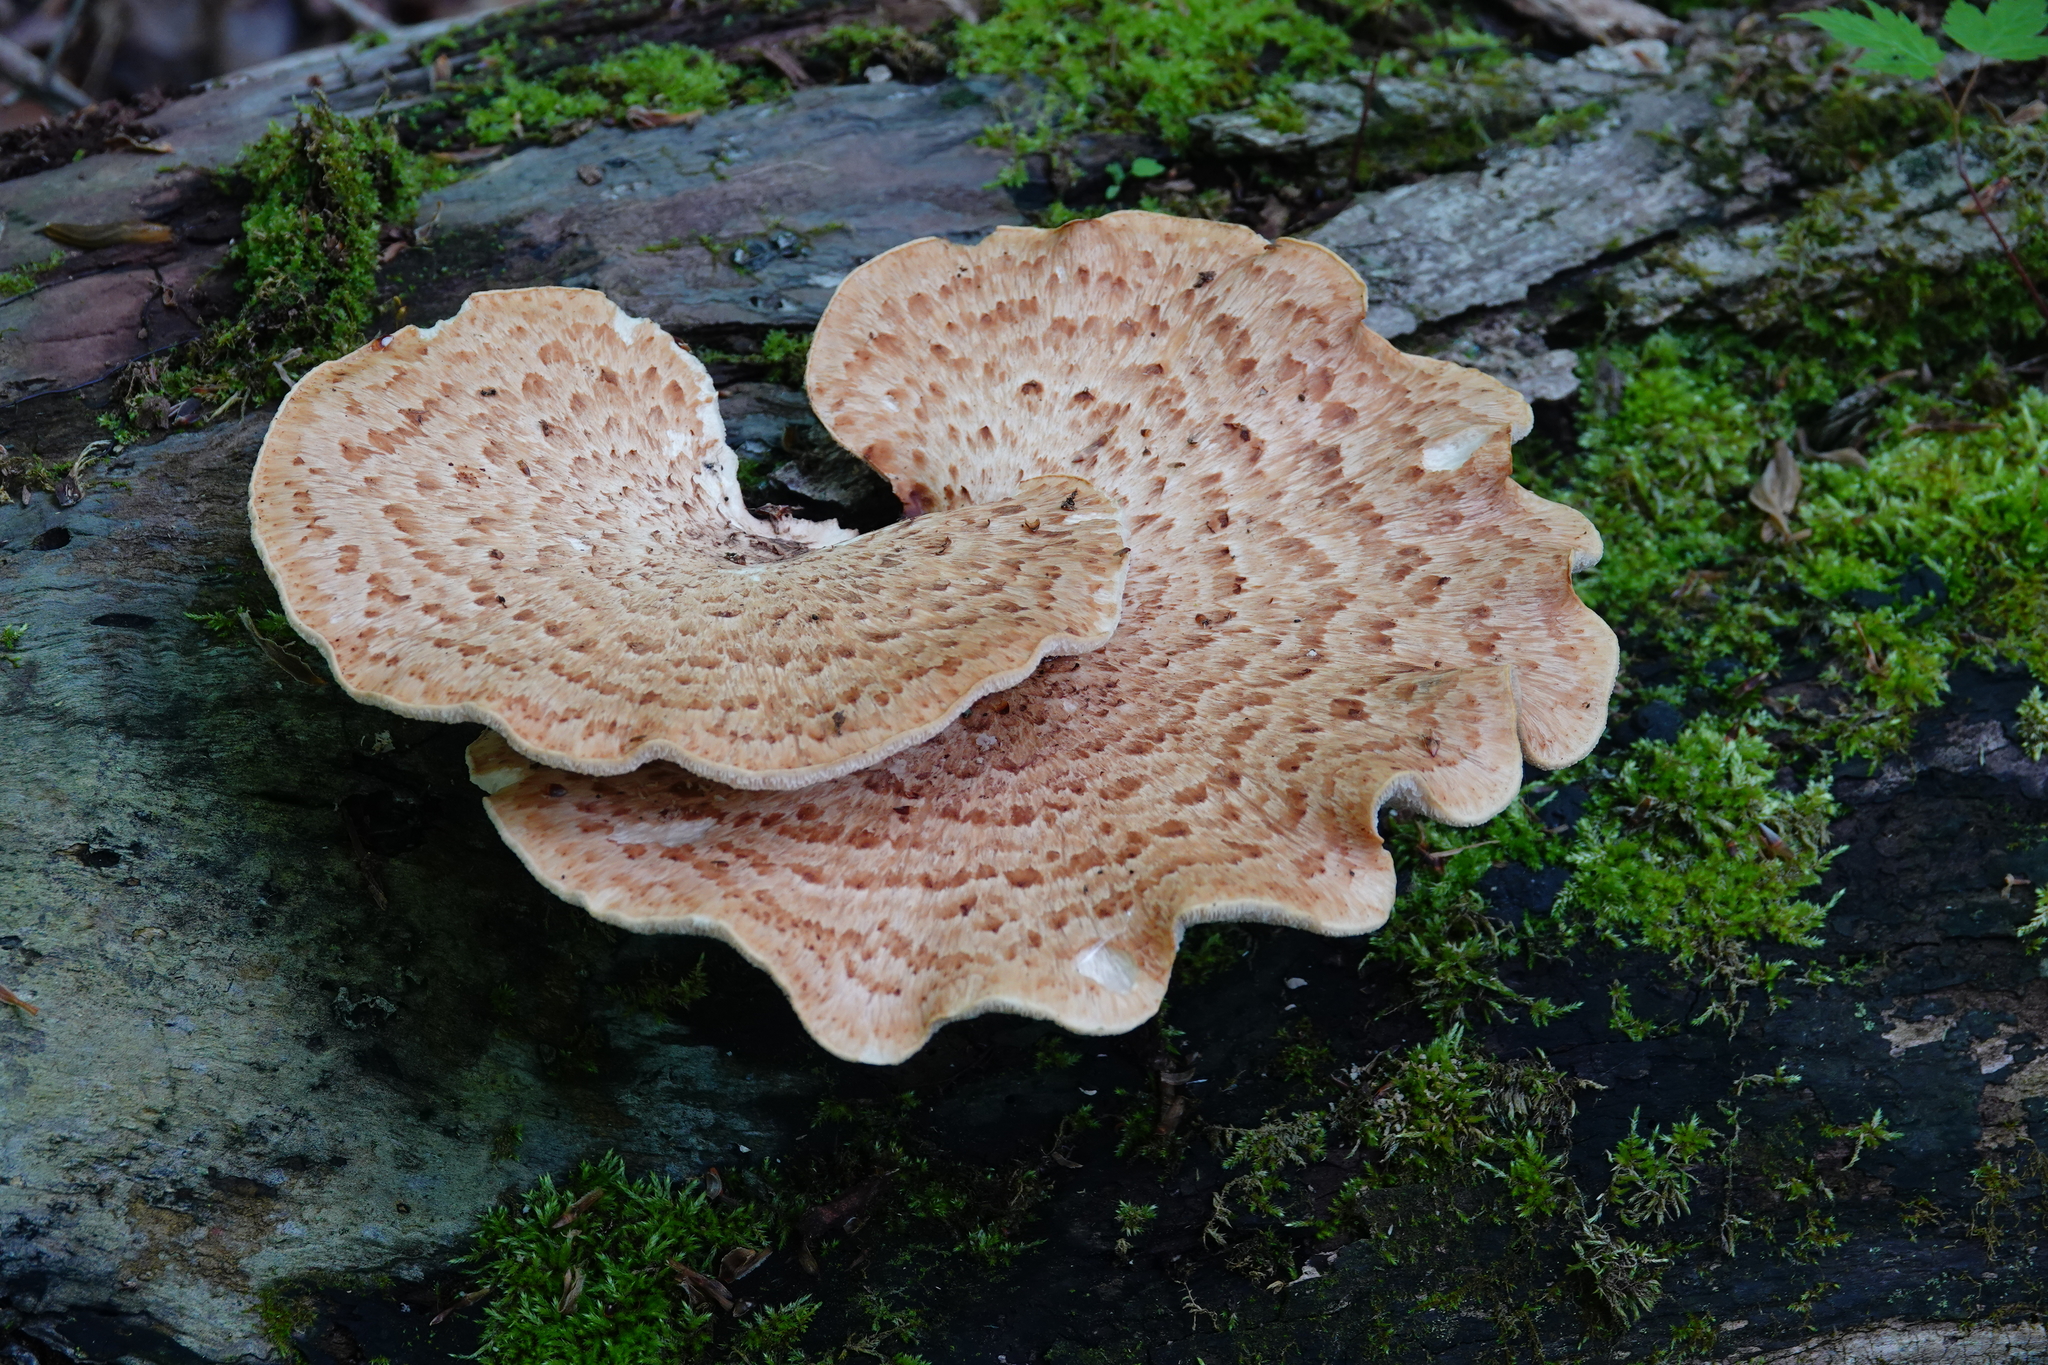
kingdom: Fungi
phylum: Basidiomycota
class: Agaricomycetes
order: Polyporales
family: Polyporaceae
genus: Cerioporus
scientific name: Cerioporus squamosus
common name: Dryad's saddle
